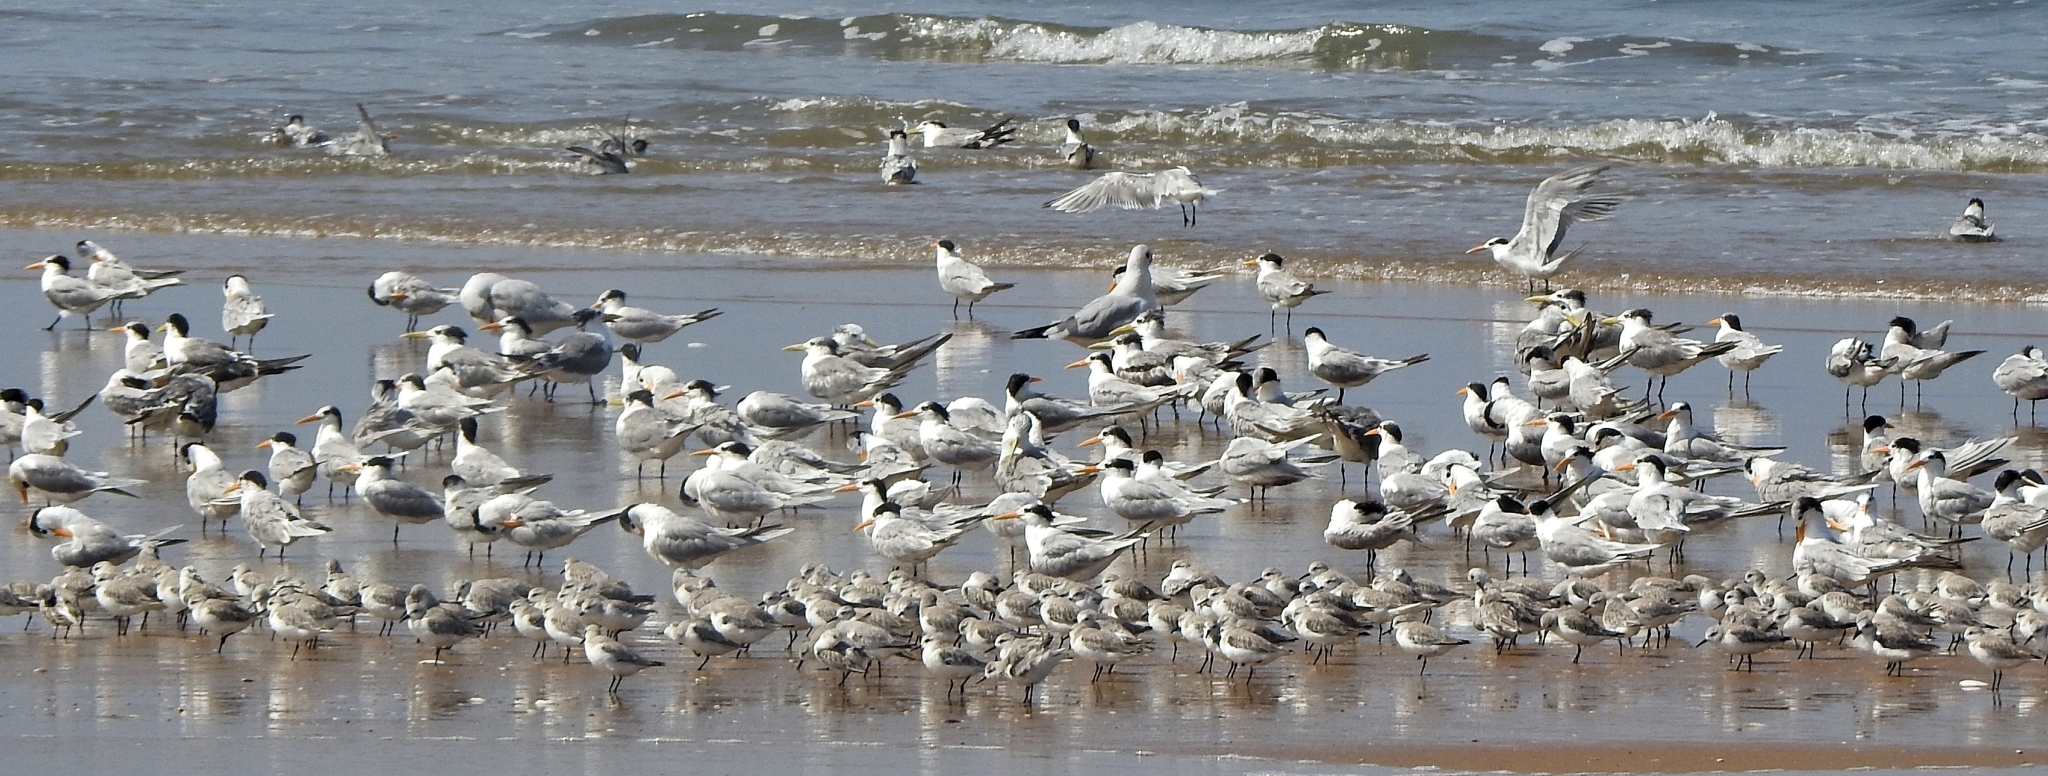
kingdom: Animalia
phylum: Chordata
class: Aves
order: Charadriiformes
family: Laridae
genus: Thalasseus
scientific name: Thalasseus bengalensis
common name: Lesser crested tern
